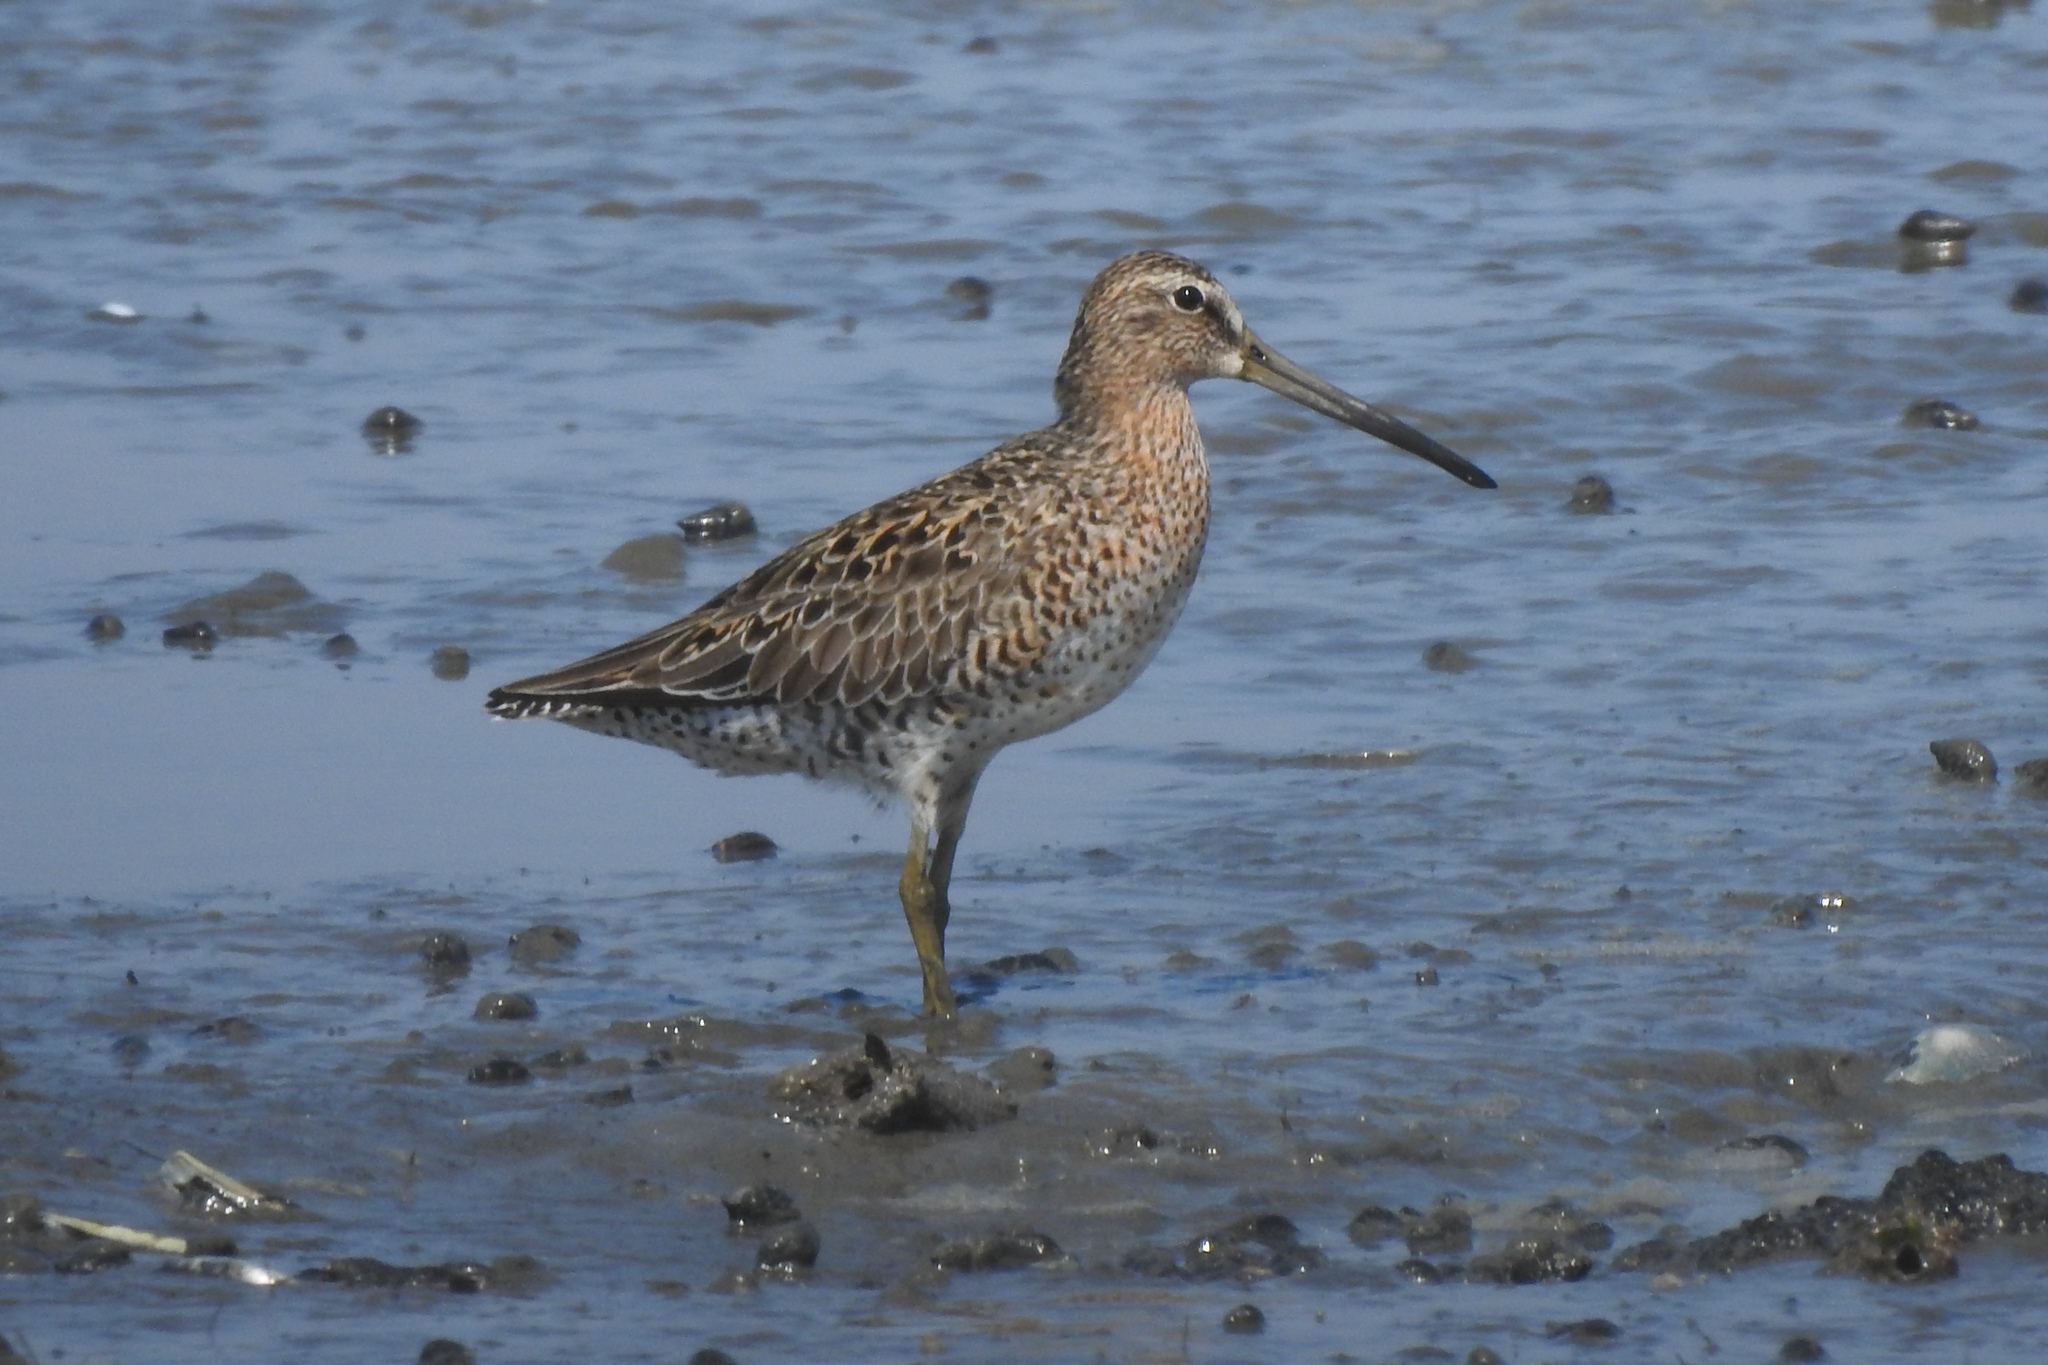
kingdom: Animalia
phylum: Chordata
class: Aves
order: Charadriiformes
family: Scolopacidae
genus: Limnodromus
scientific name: Limnodromus griseus
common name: Short-billed dowitcher
